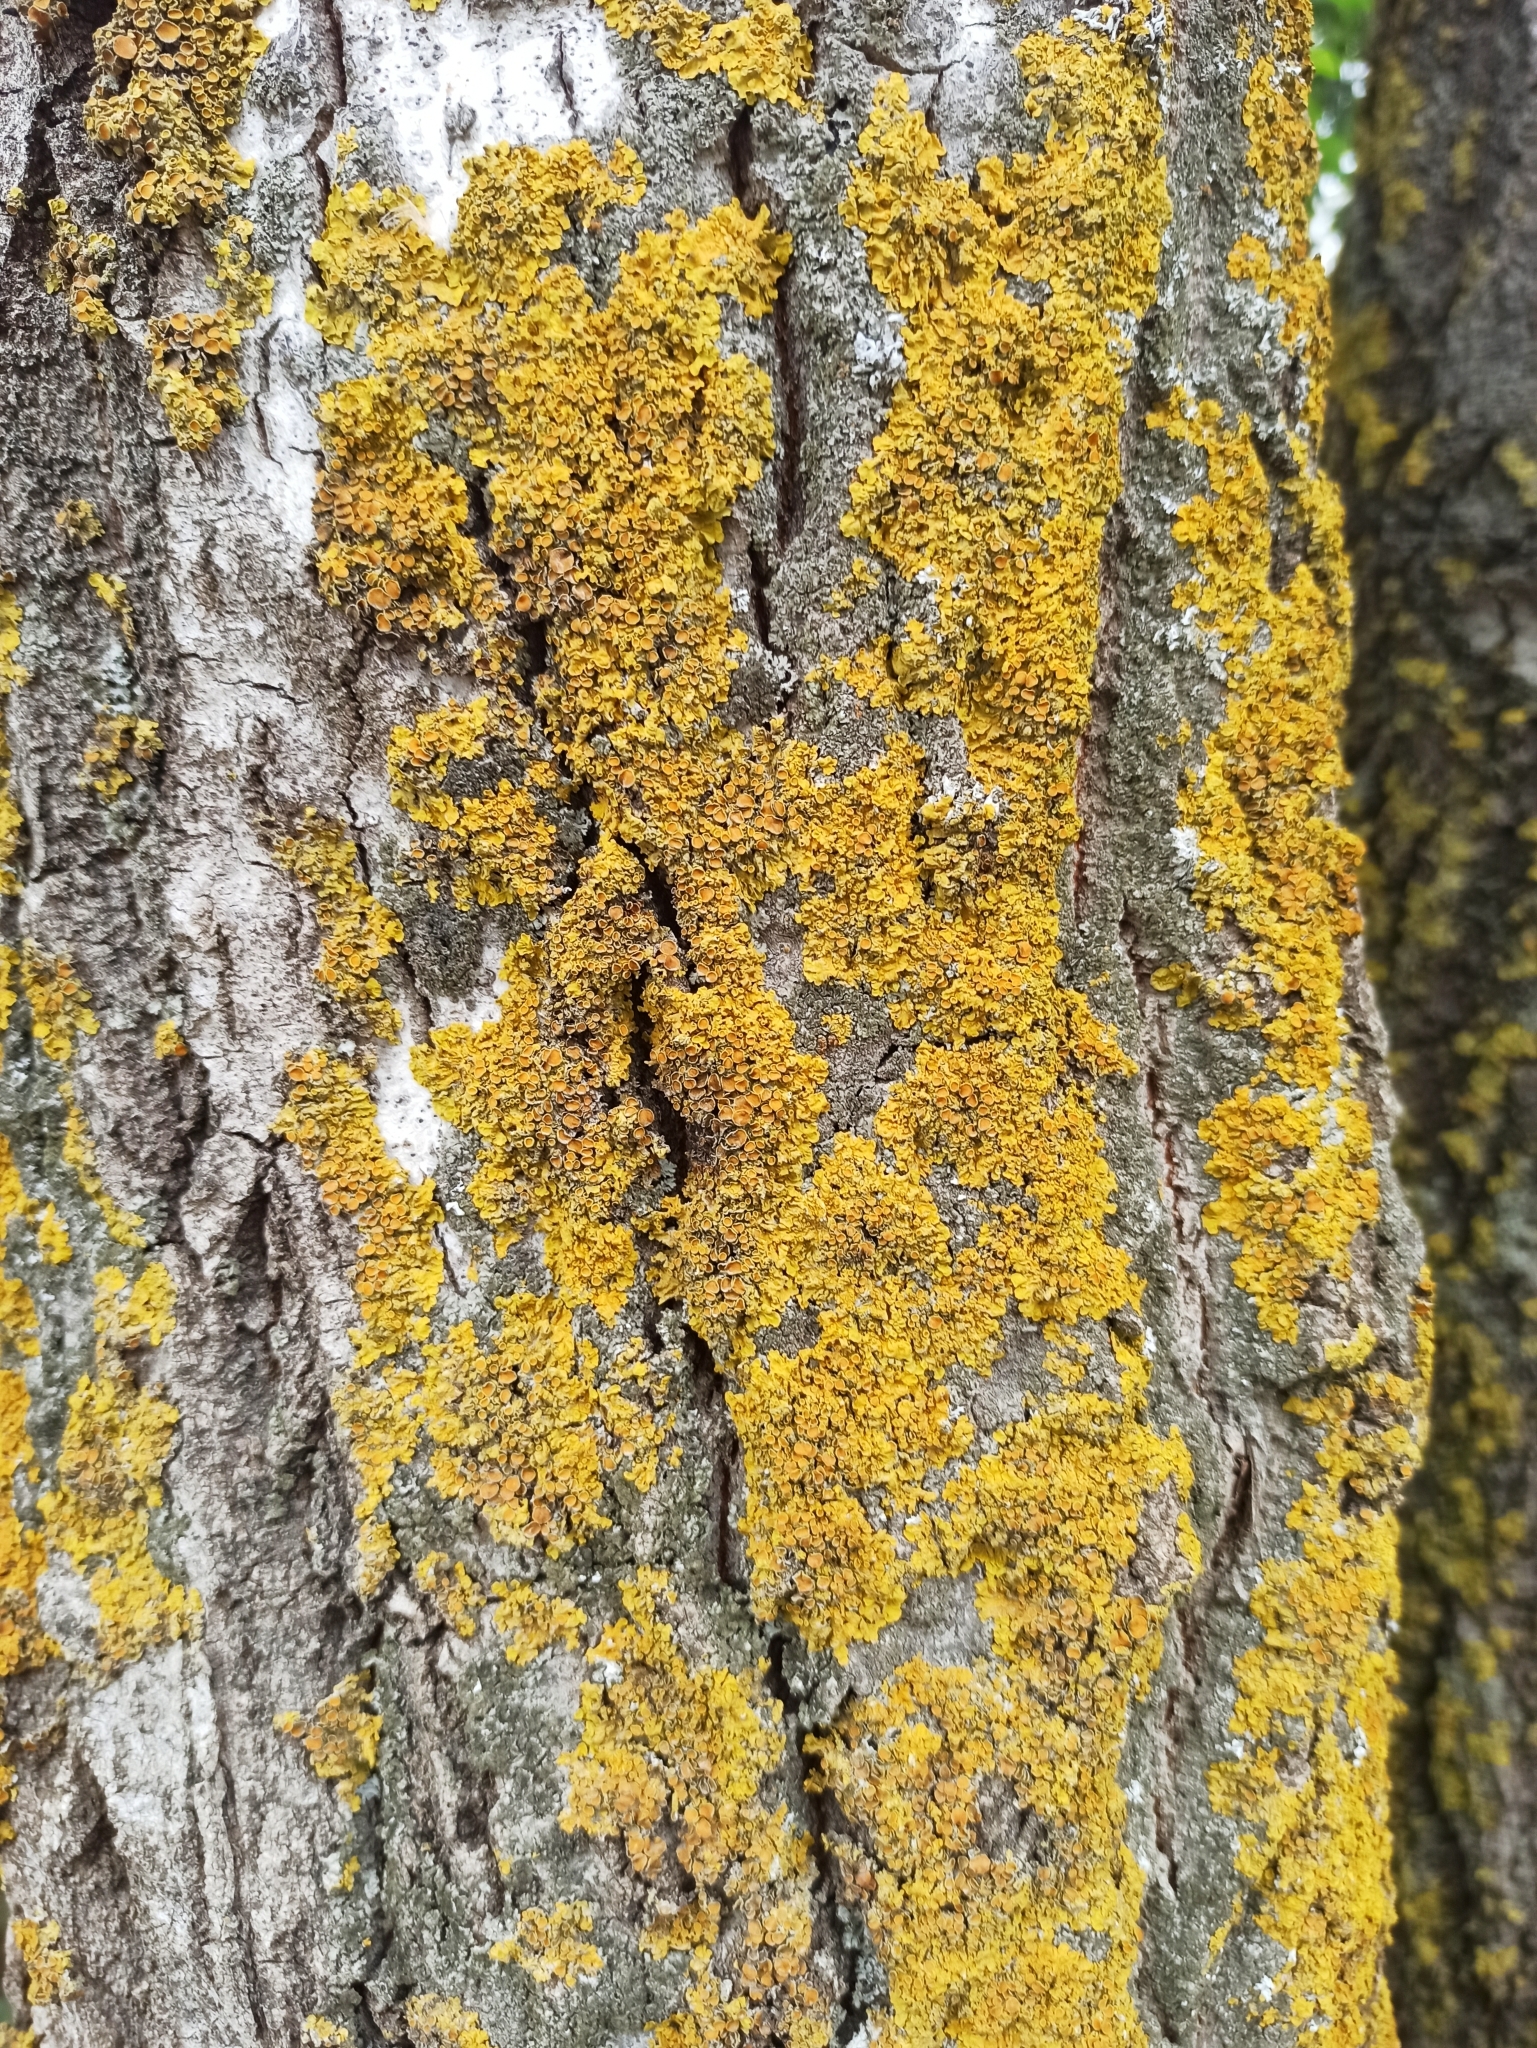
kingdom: Fungi
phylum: Ascomycota
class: Lecanoromycetes
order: Teloschistales
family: Teloschistaceae
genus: Xanthoria
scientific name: Xanthoria parietina
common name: Common orange lichen
